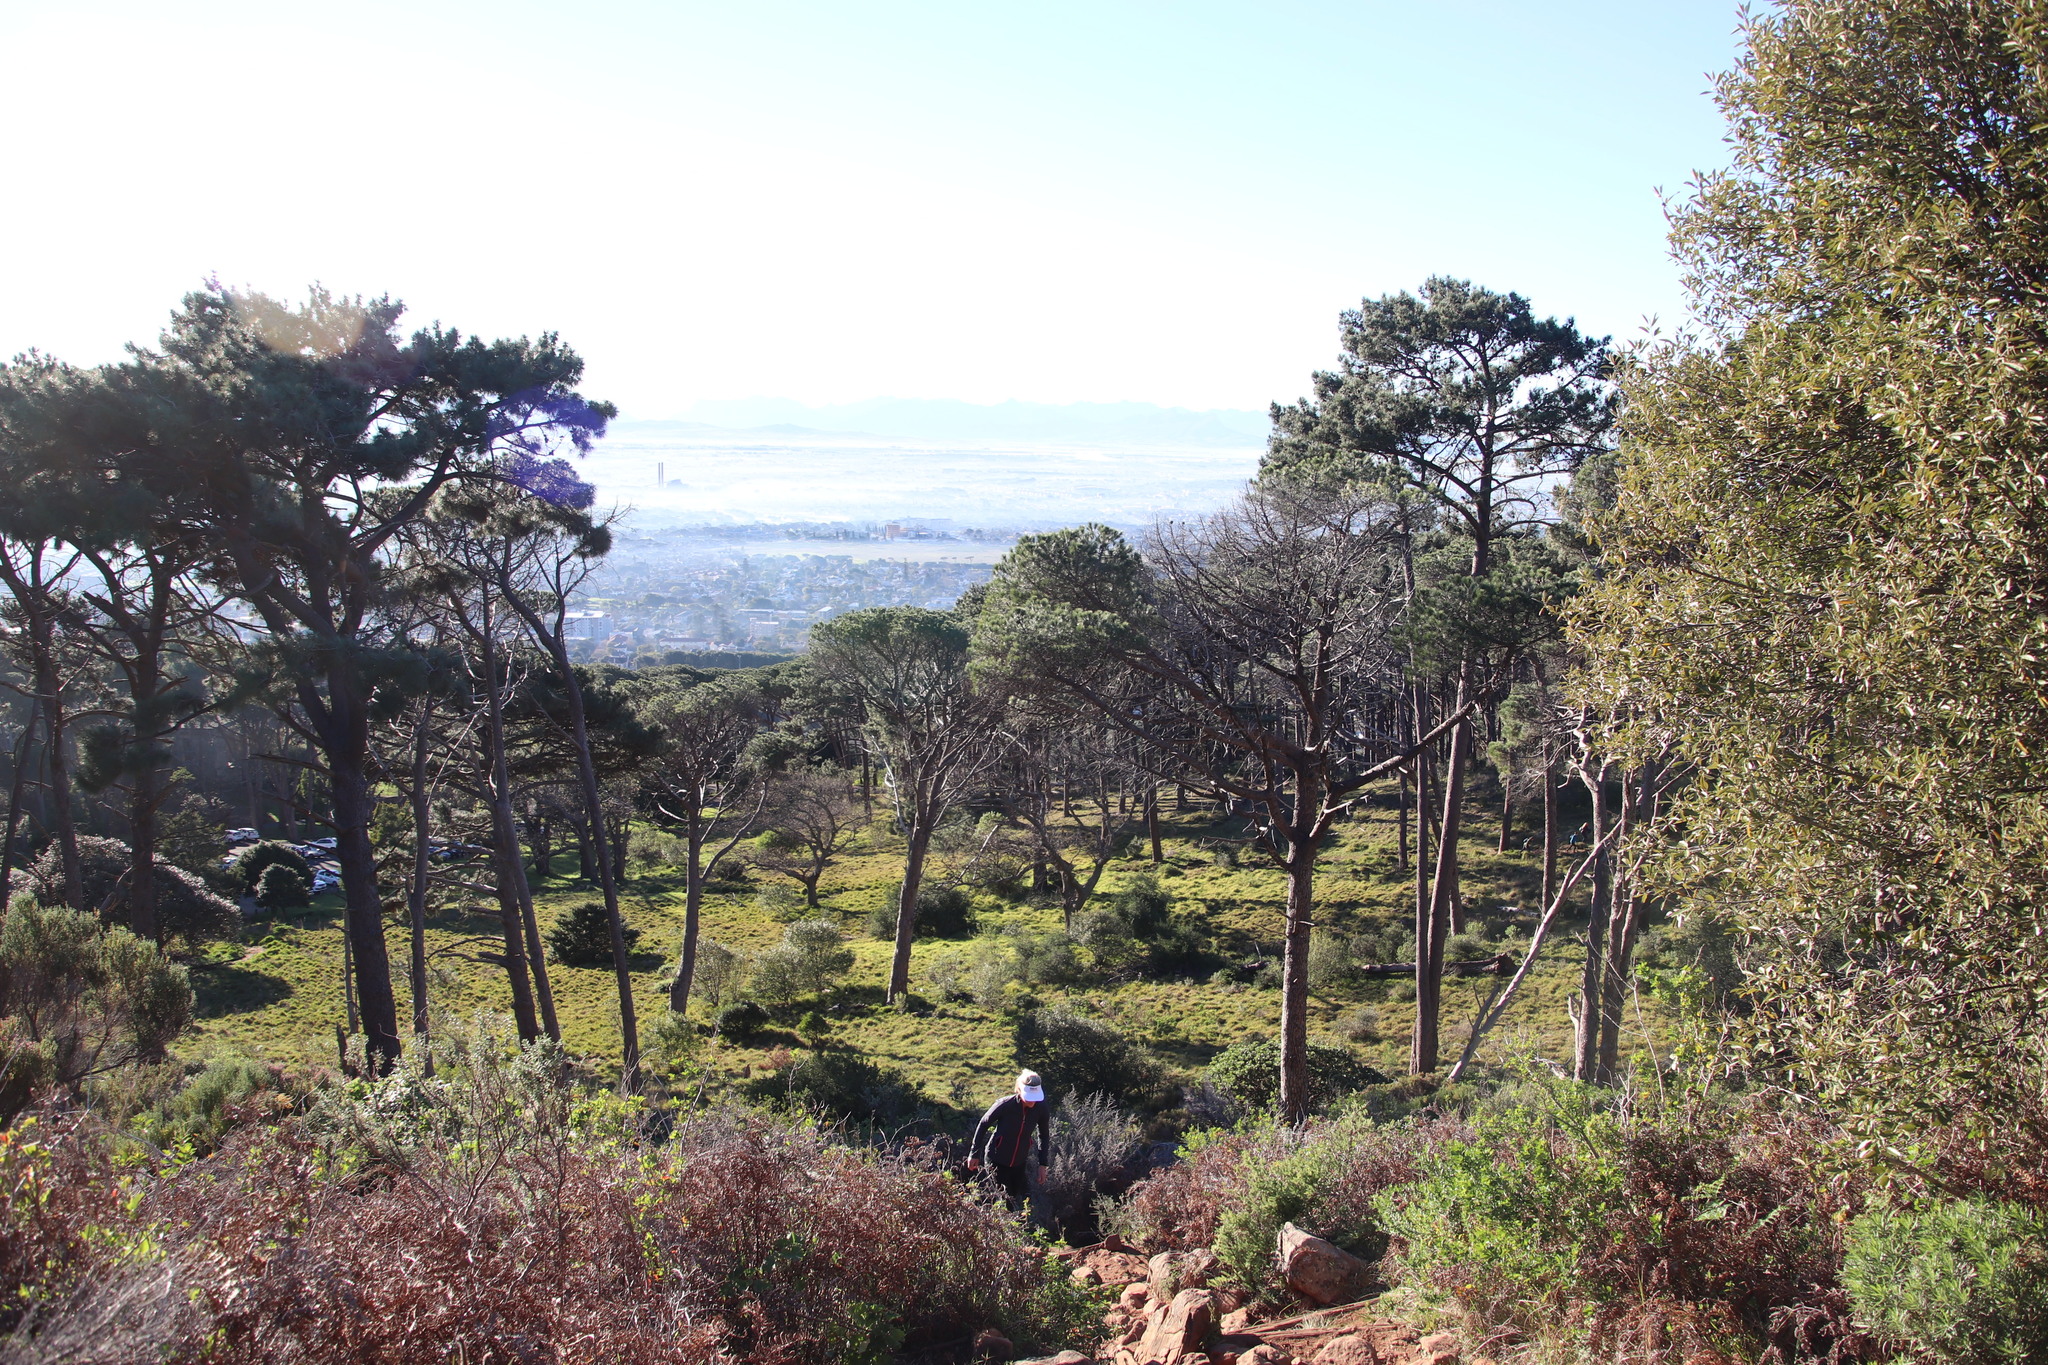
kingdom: Plantae
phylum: Tracheophyta
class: Pinopsida
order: Pinales
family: Pinaceae
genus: Pinus
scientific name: Pinus pinea
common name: Italian stone pine
